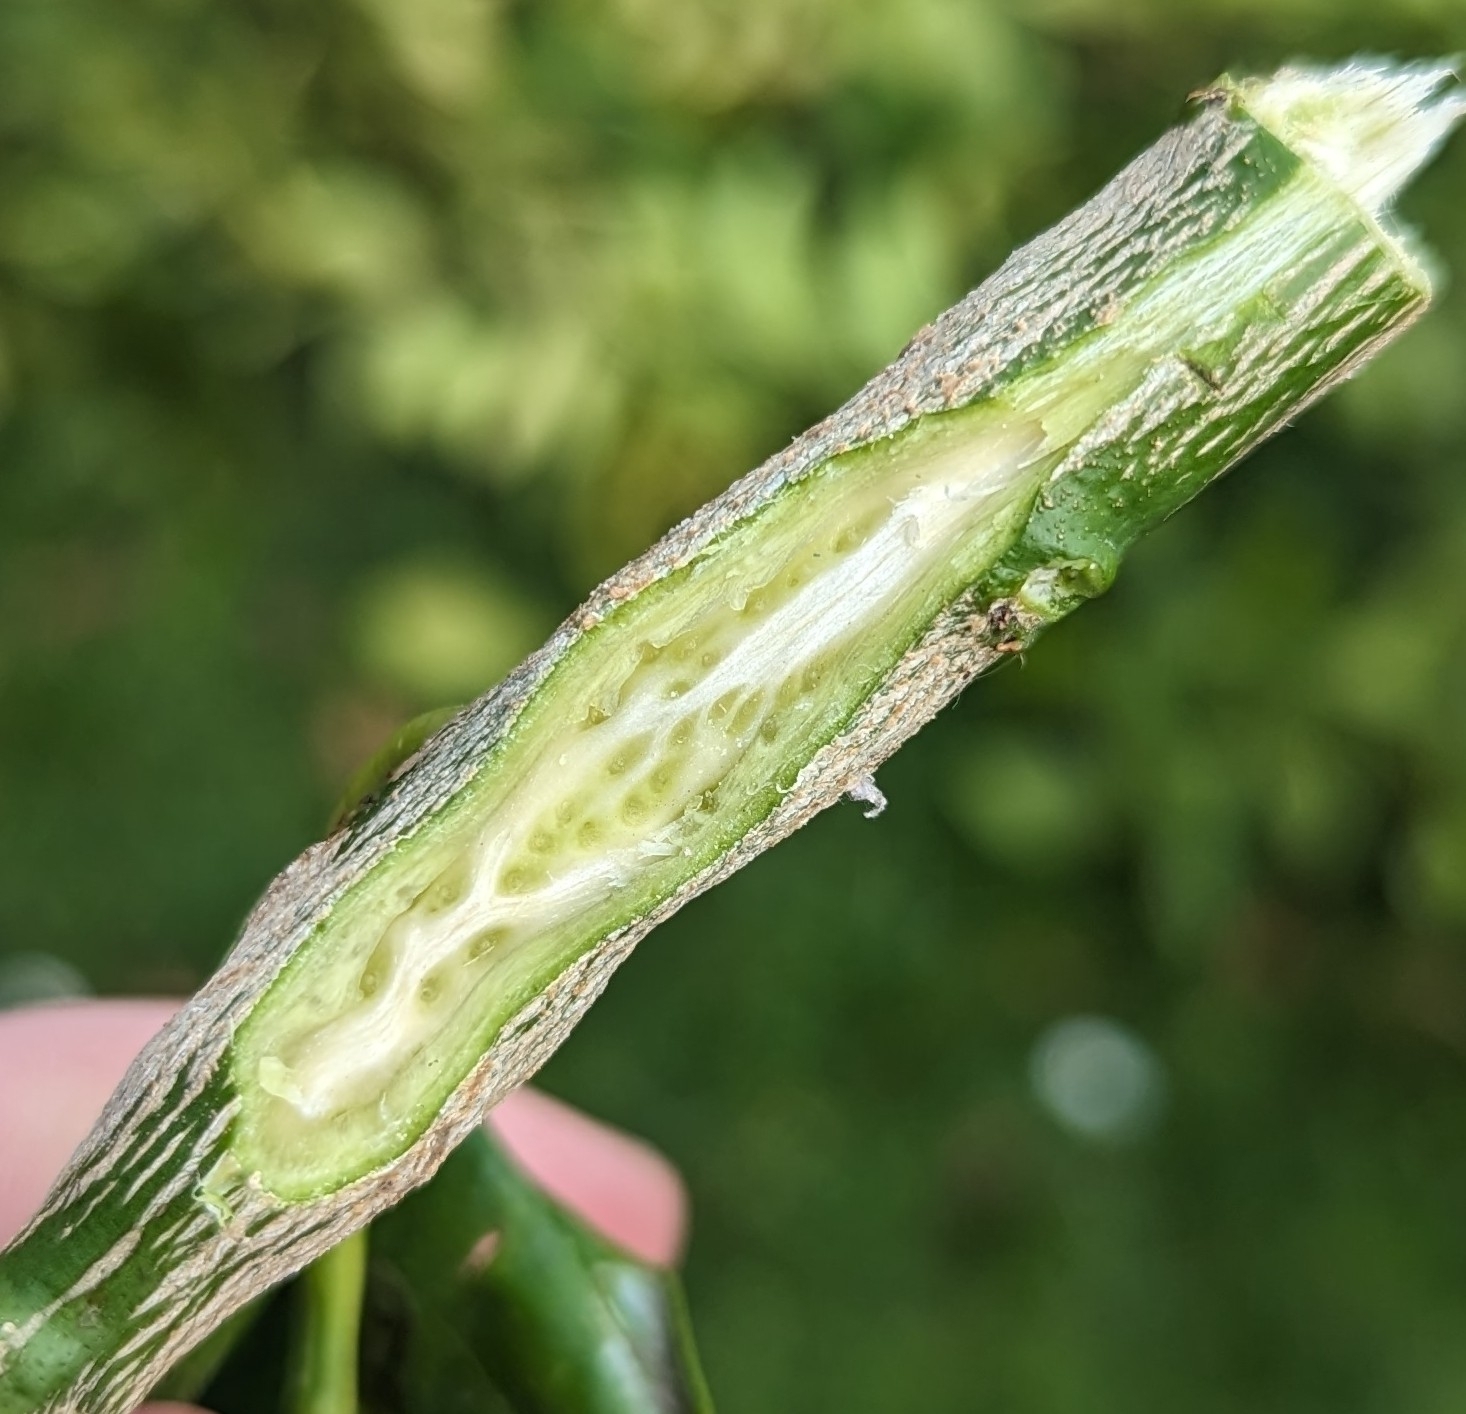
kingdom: Animalia
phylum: Arthropoda
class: Insecta
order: Hymenoptera
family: Eurytomidae
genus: Bruchophagus
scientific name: Bruchophagus fellis
